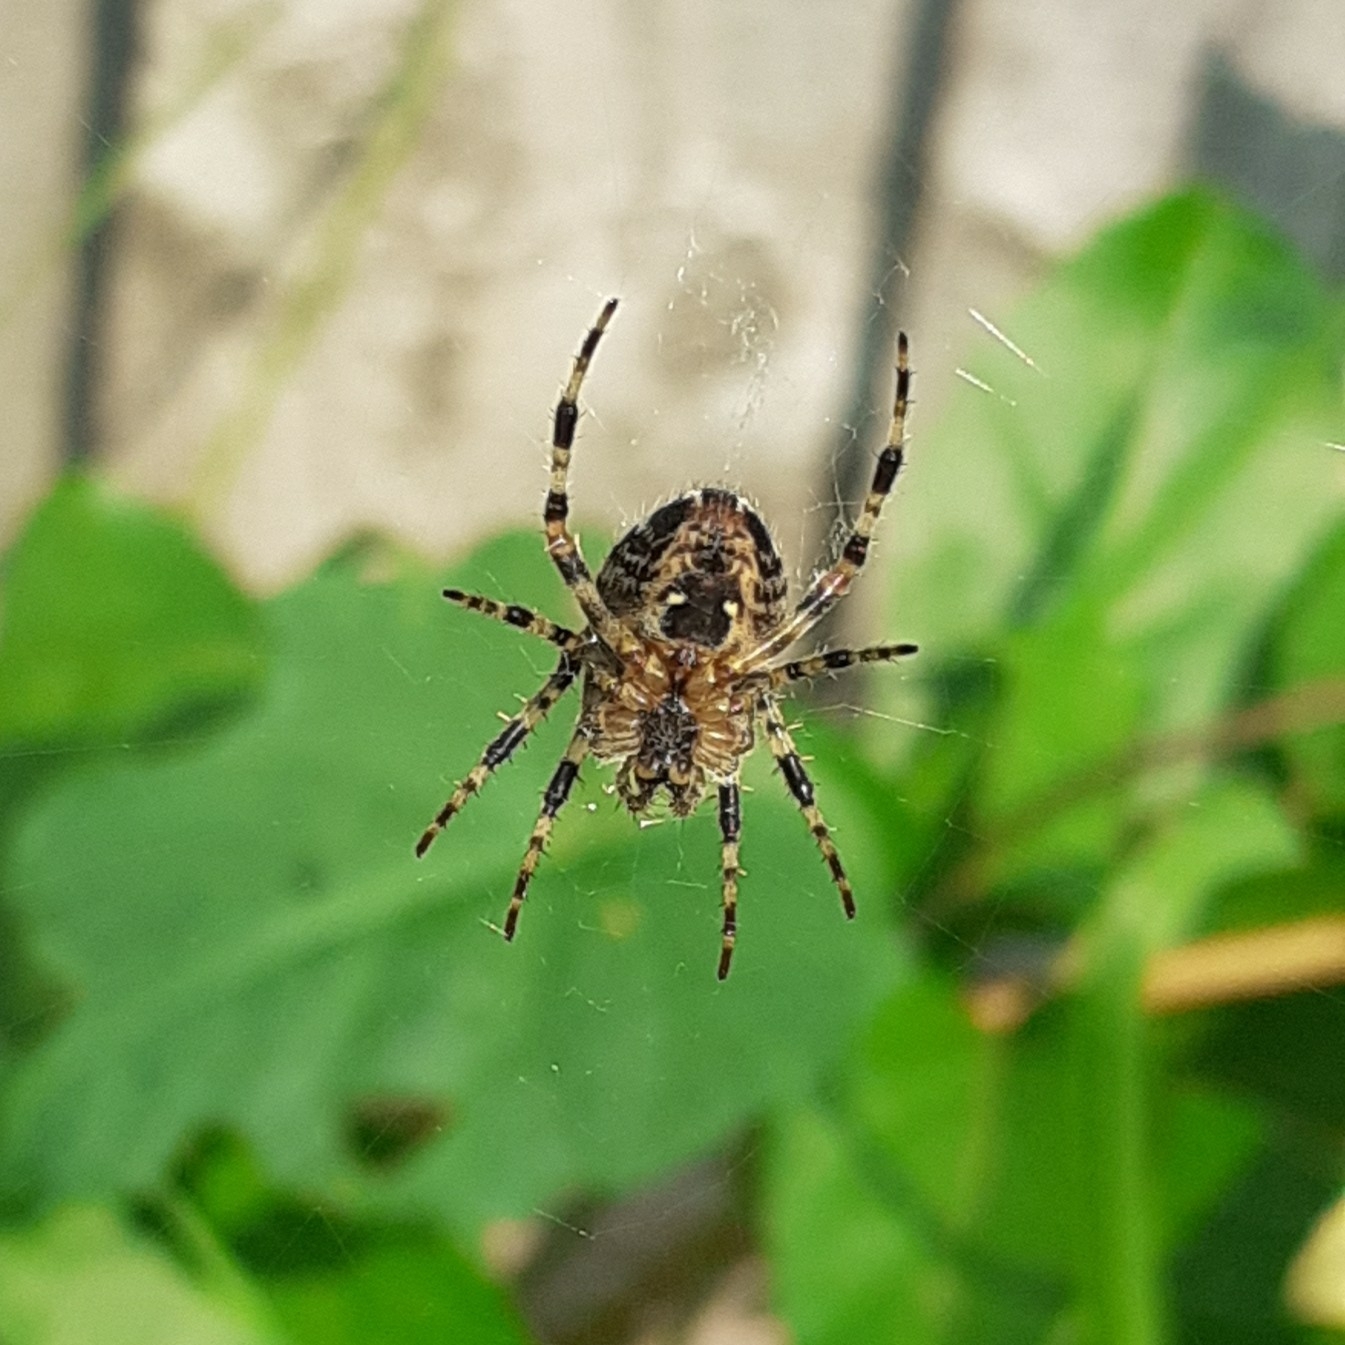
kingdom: Animalia
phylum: Arthropoda
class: Arachnida
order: Araneae
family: Araneidae
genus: Araneus
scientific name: Araneus diadematus
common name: Cross orbweaver
